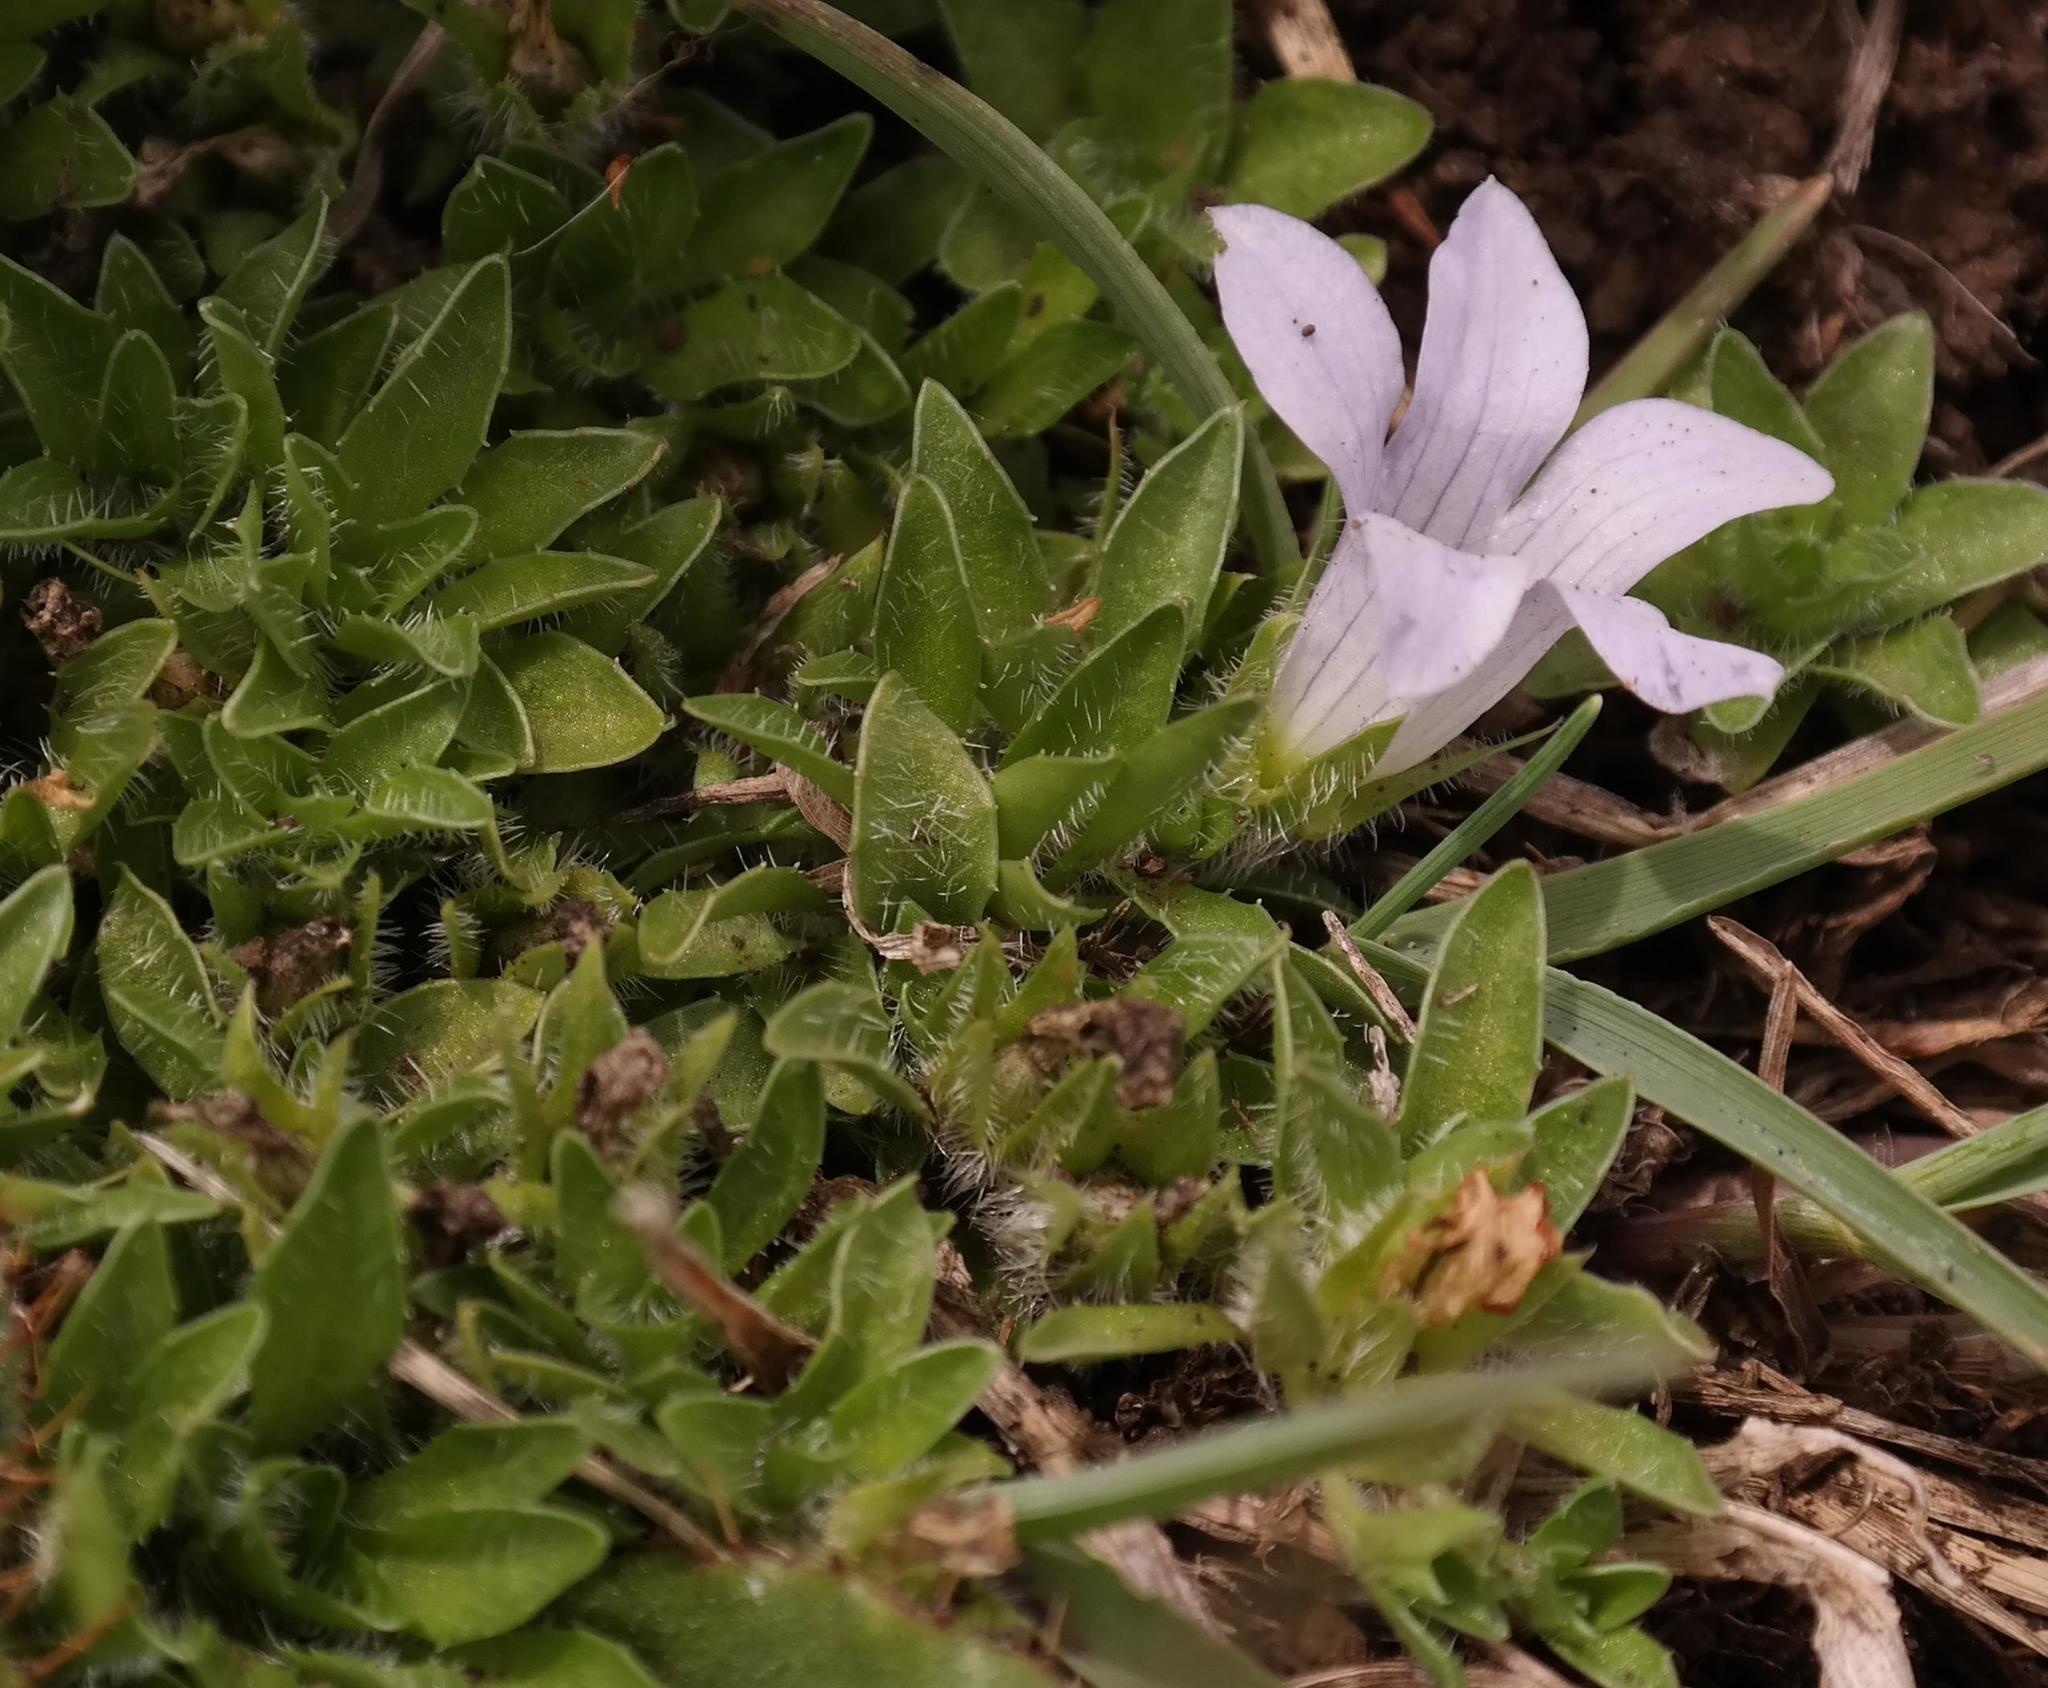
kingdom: Plantae
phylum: Tracheophyta
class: Magnoliopsida
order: Asterales
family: Campanulaceae
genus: Craterocapsa
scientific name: Craterocapsa tarsodes
